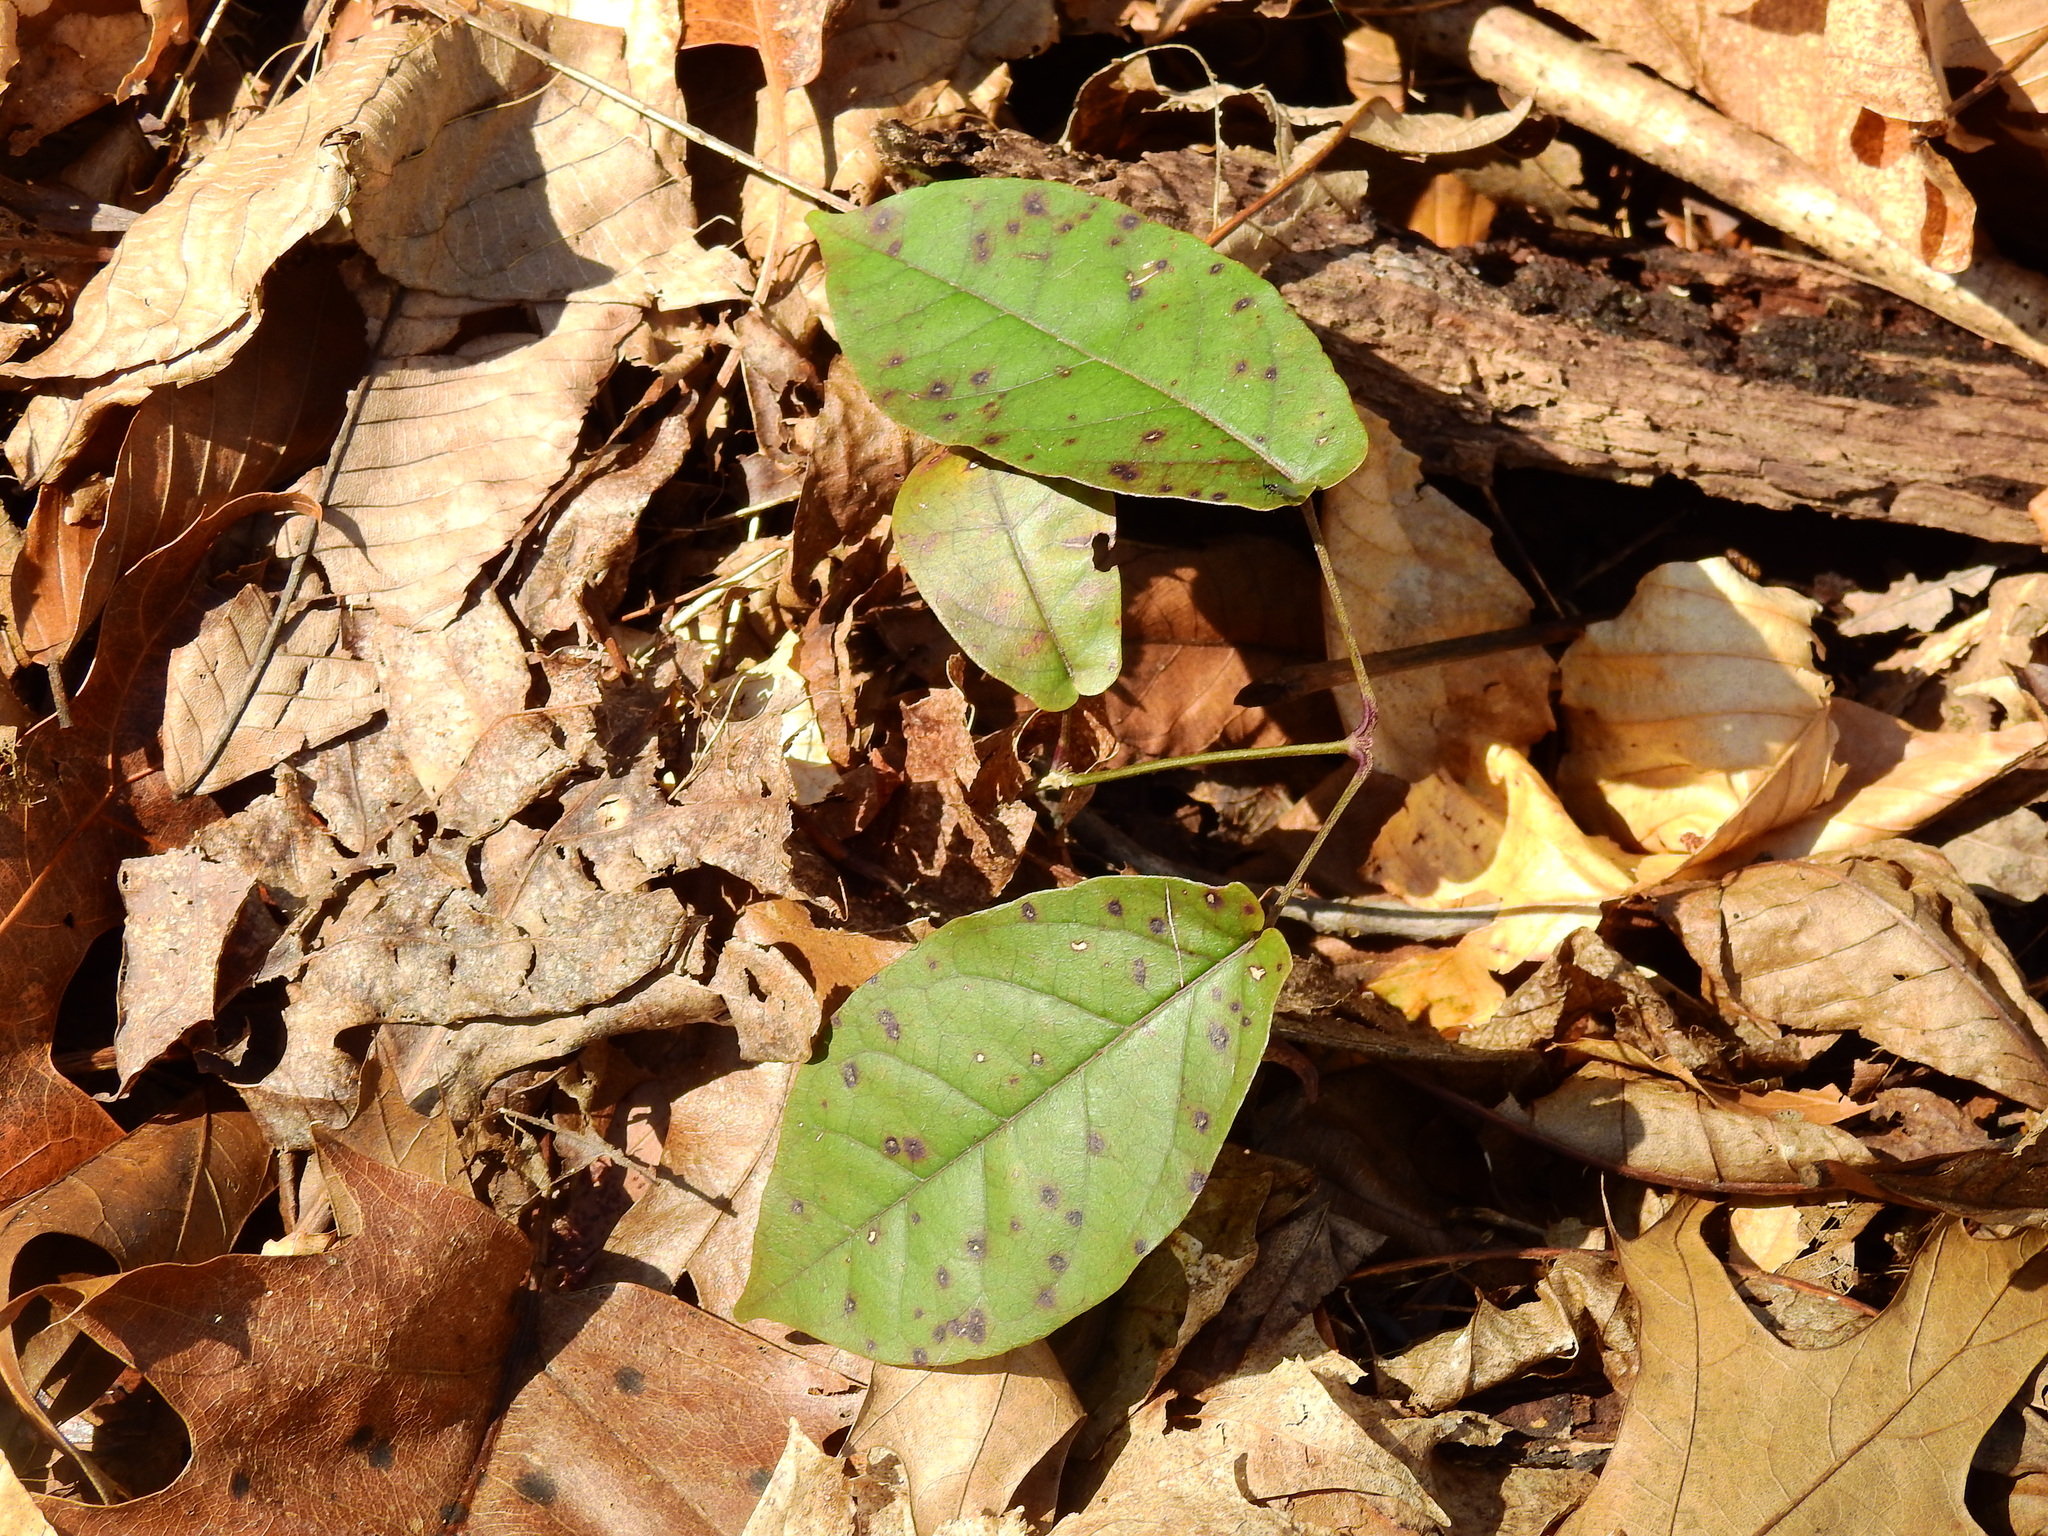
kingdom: Plantae
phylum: Tracheophyta
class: Magnoliopsida
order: Lamiales
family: Bignoniaceae
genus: Bignonia
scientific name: Bignonia capreolata
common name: Crossvine
